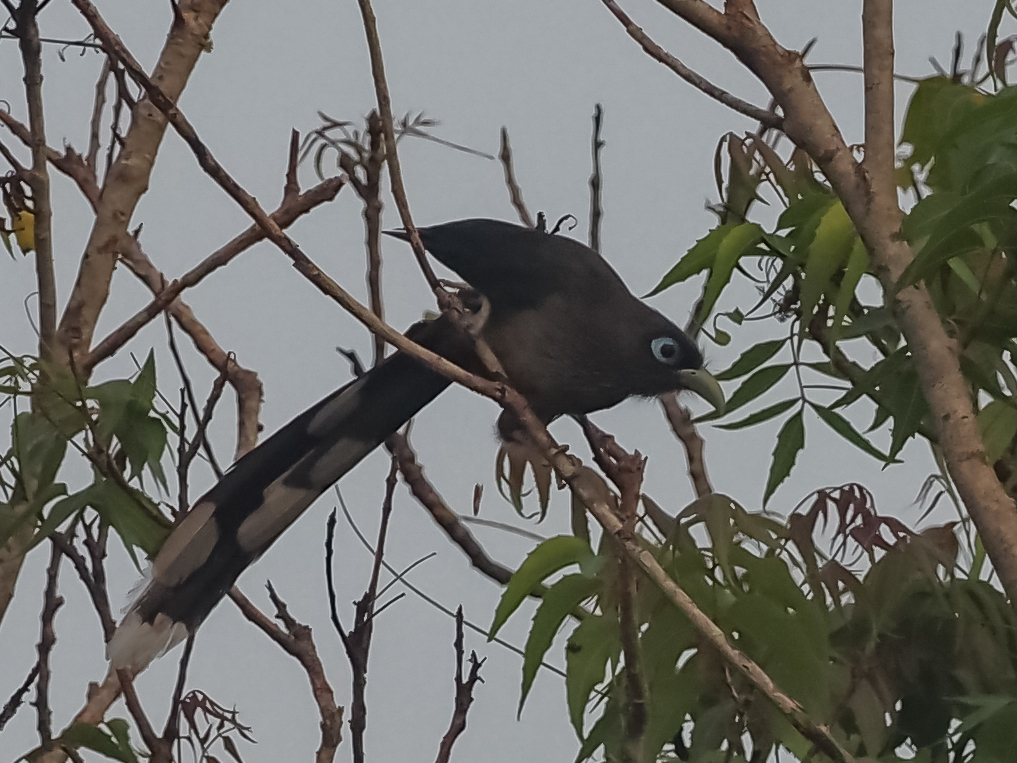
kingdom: Animalia
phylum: Chordata
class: Aves
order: Cuculiformes
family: Cuculidae
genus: Rhopodytes
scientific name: Rhopodytes viridirostris
